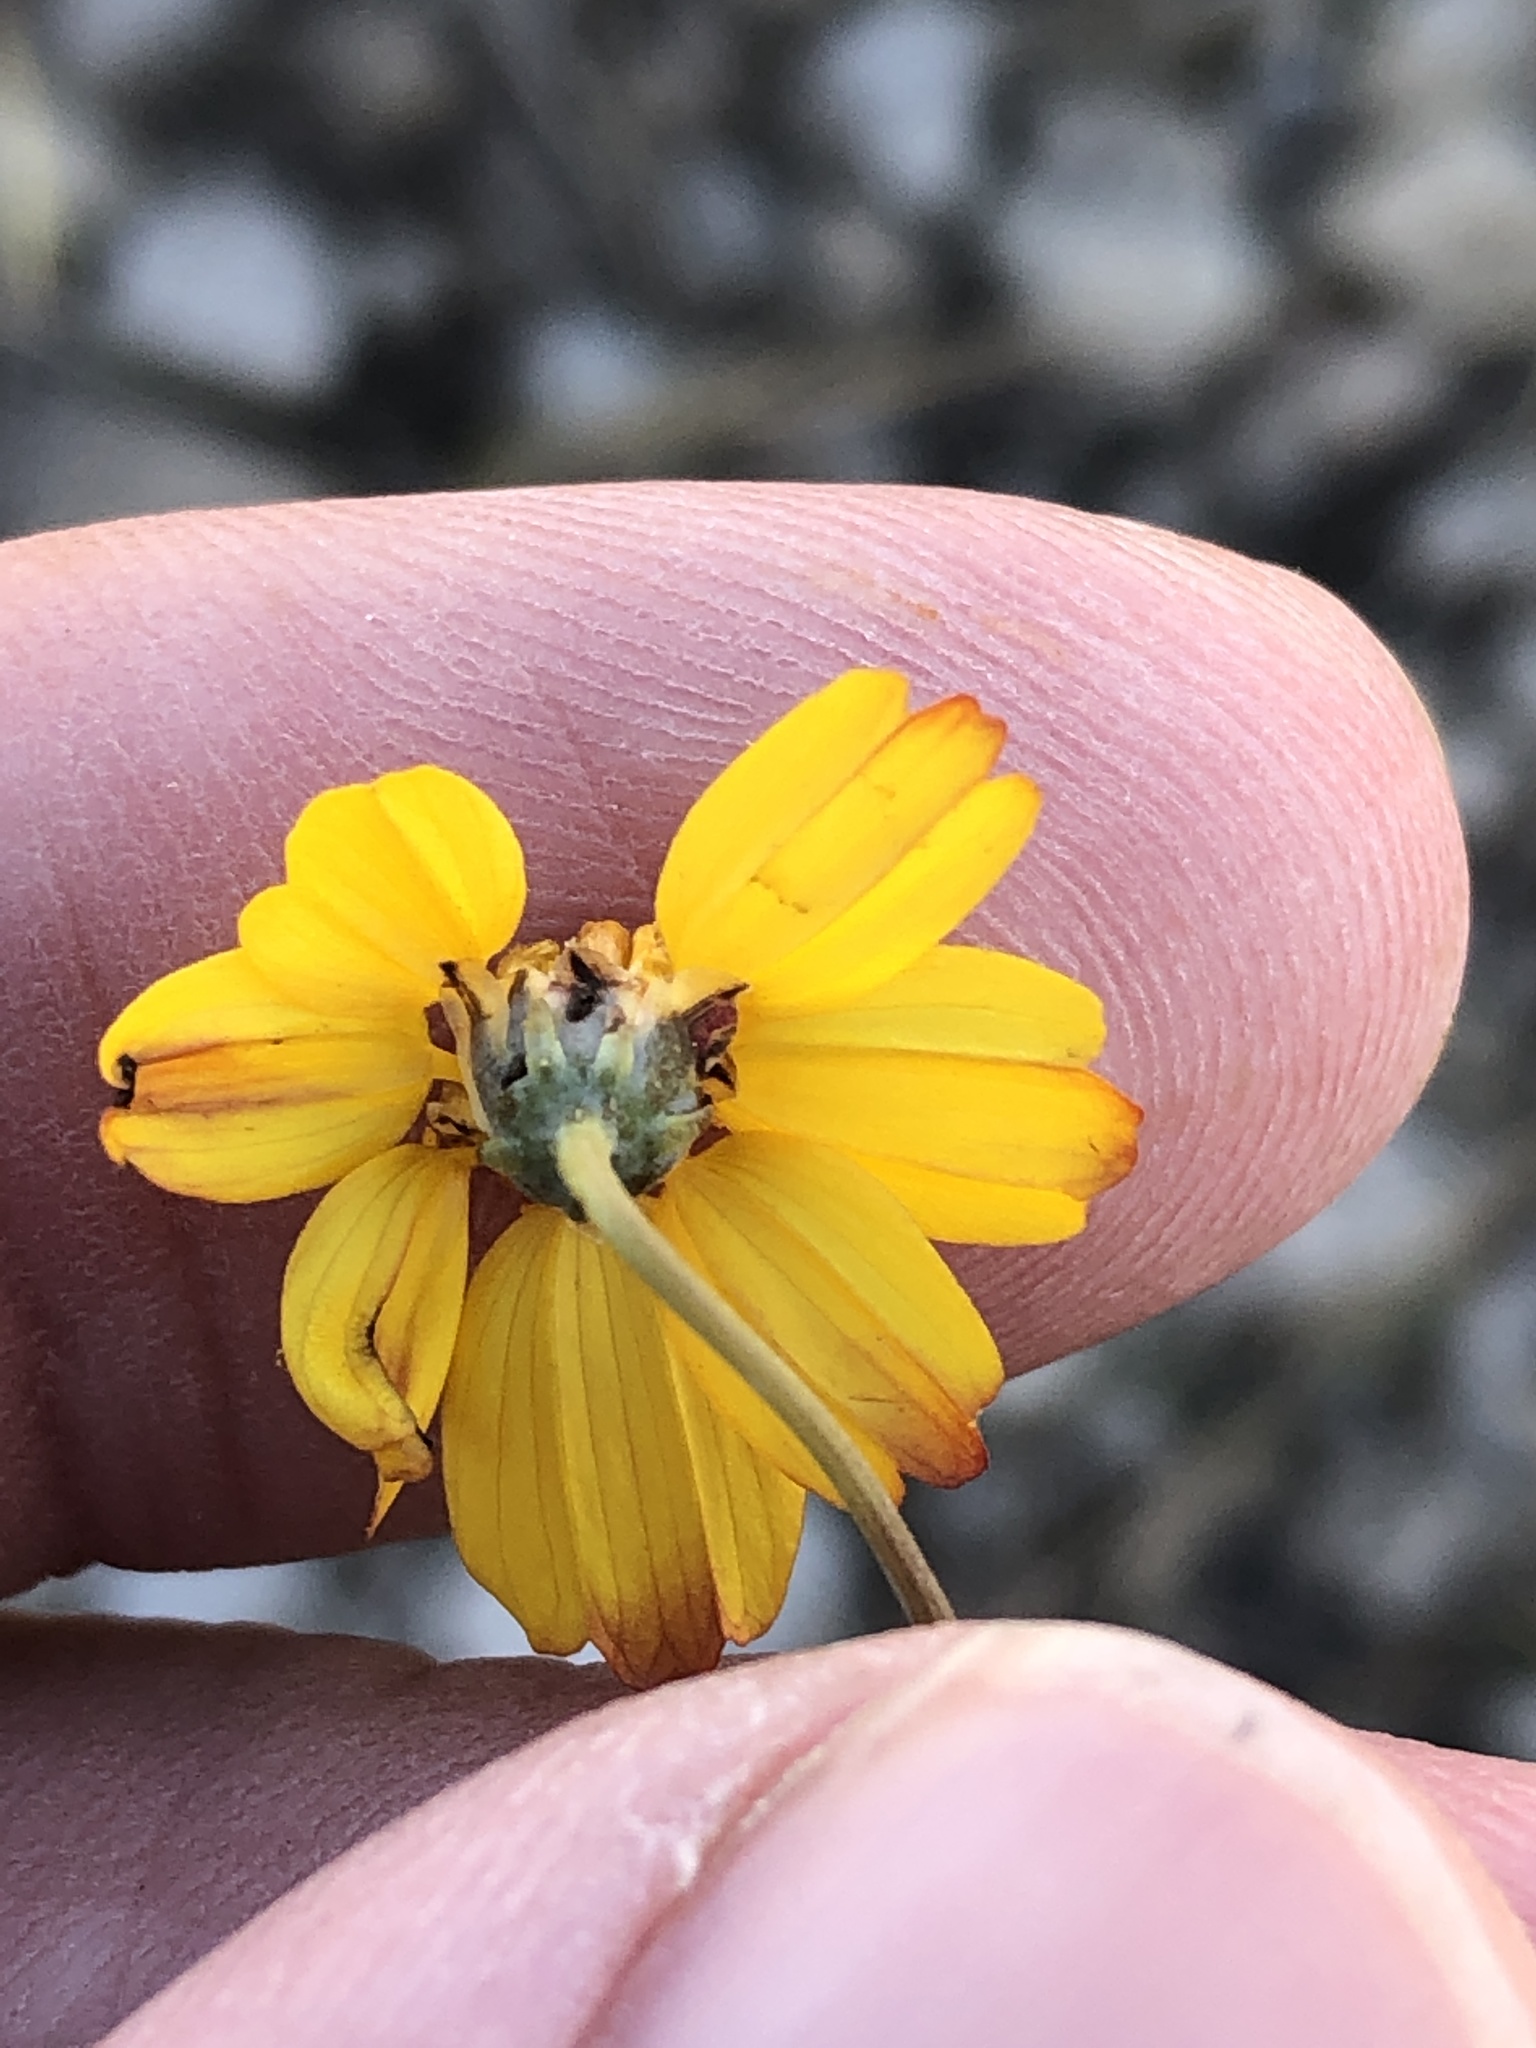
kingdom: Plantae
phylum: Tracheophyta
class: Magnoliopsida
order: Asterales
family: Asteraceae
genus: Thelesperma
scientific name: Thelesperma simplicifolium
